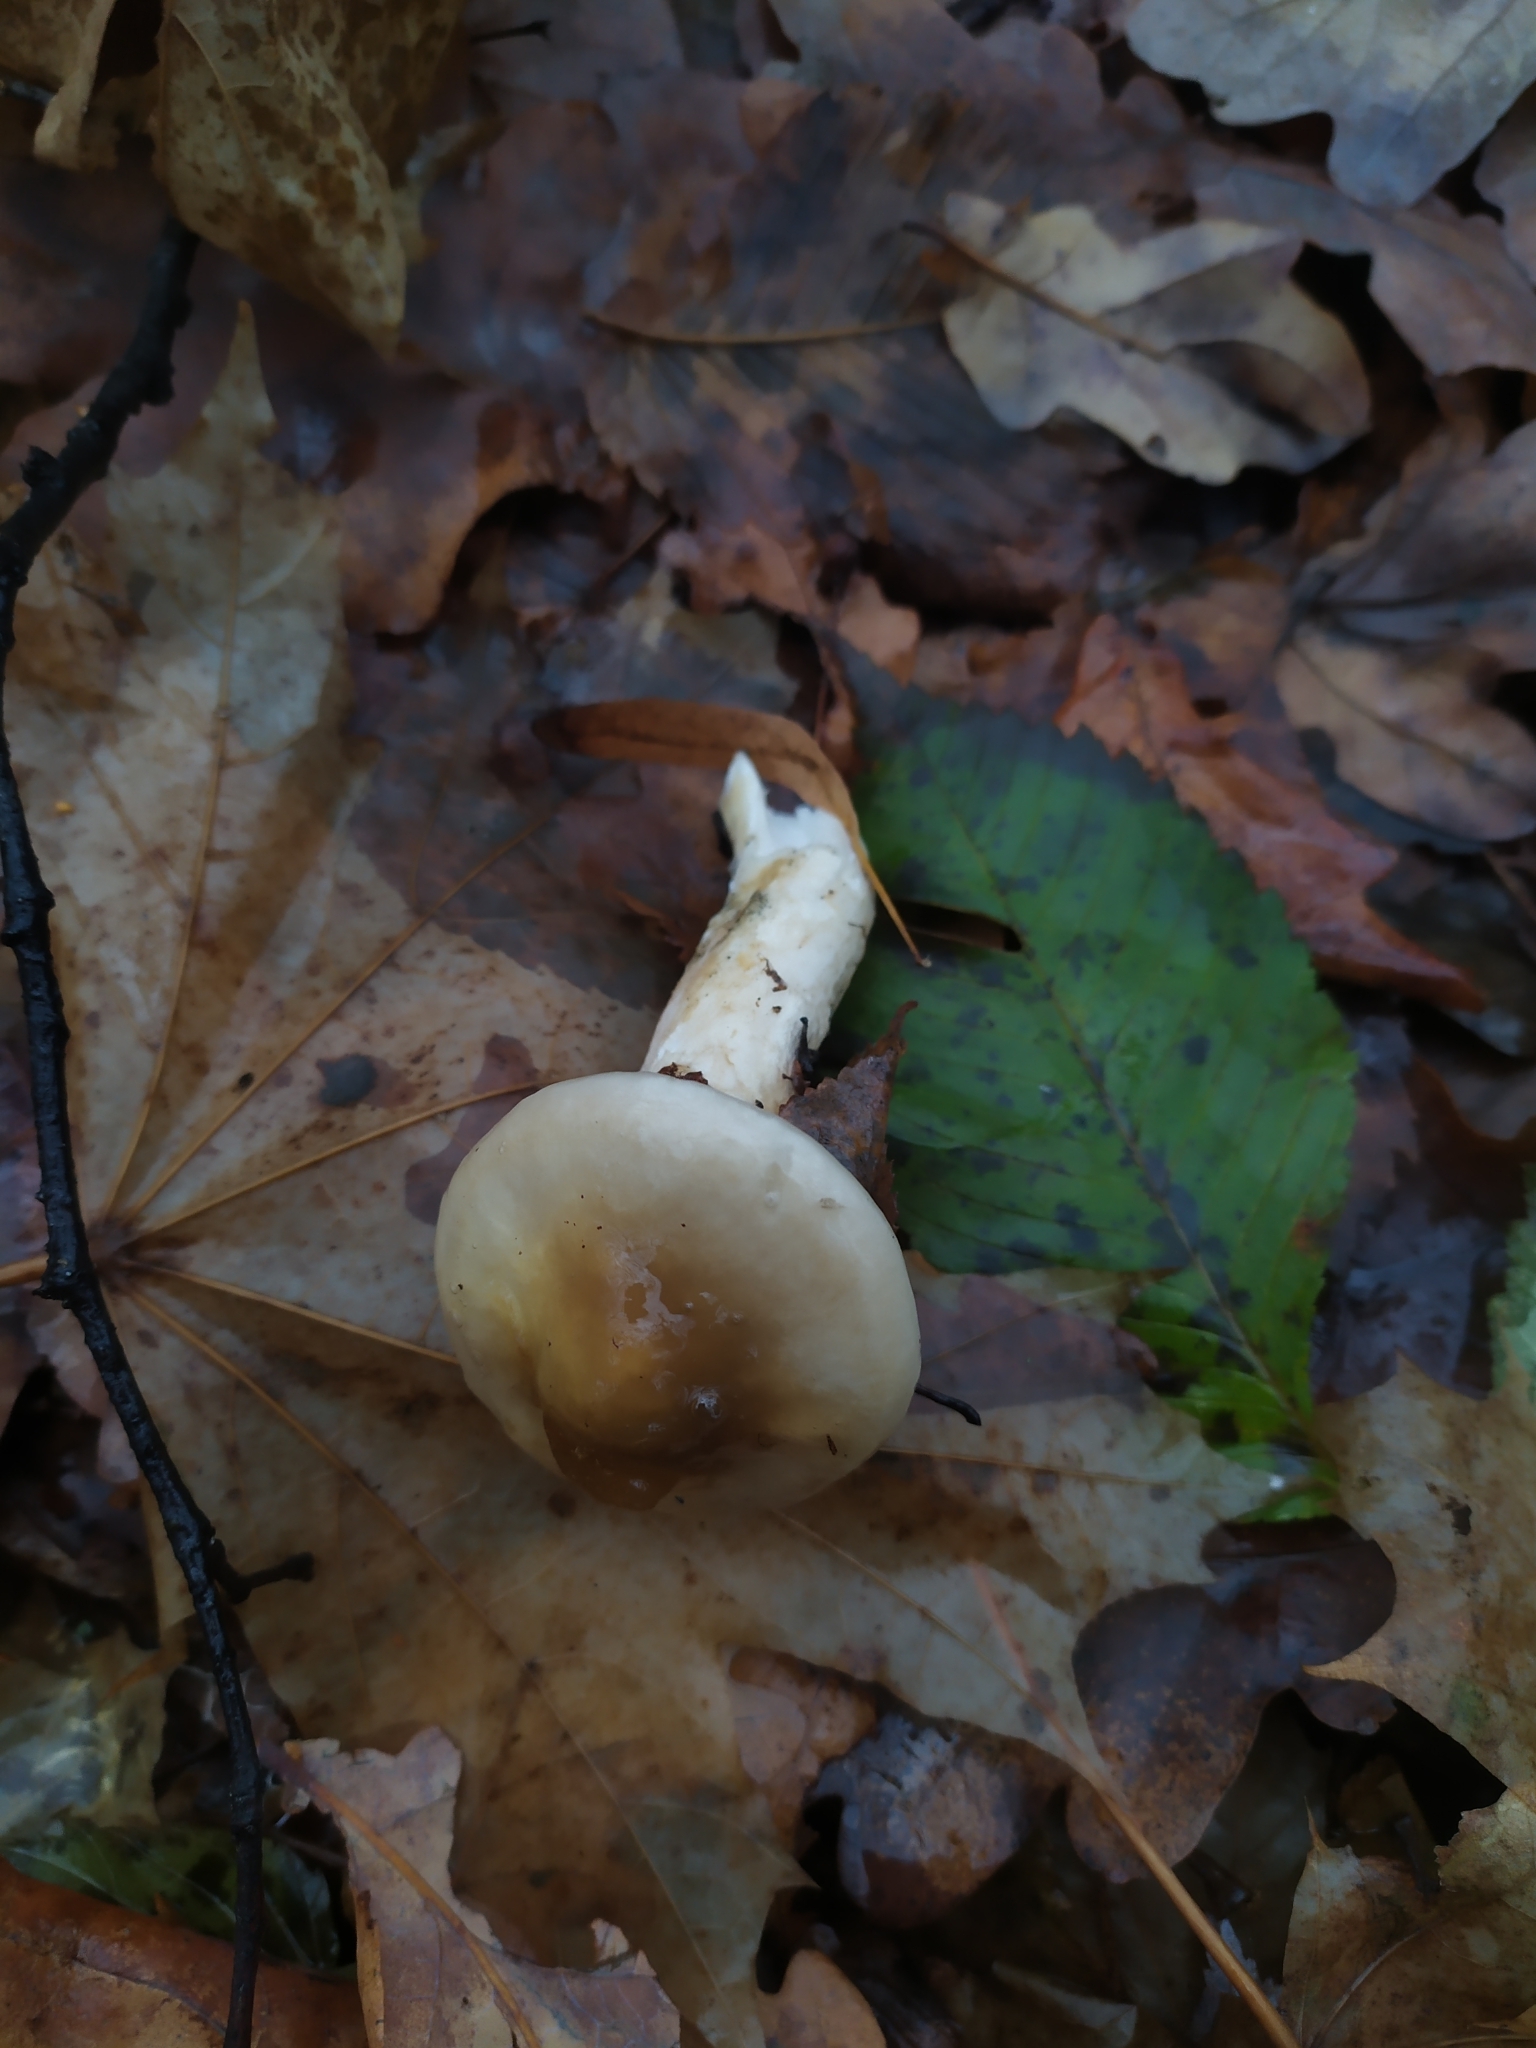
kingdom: Fungi
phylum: Basidiomycota
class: Agaricomycetes
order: Agaricales
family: Hygrophoraceae
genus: Hygrophorus
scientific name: Hygrophorus glutinifer
